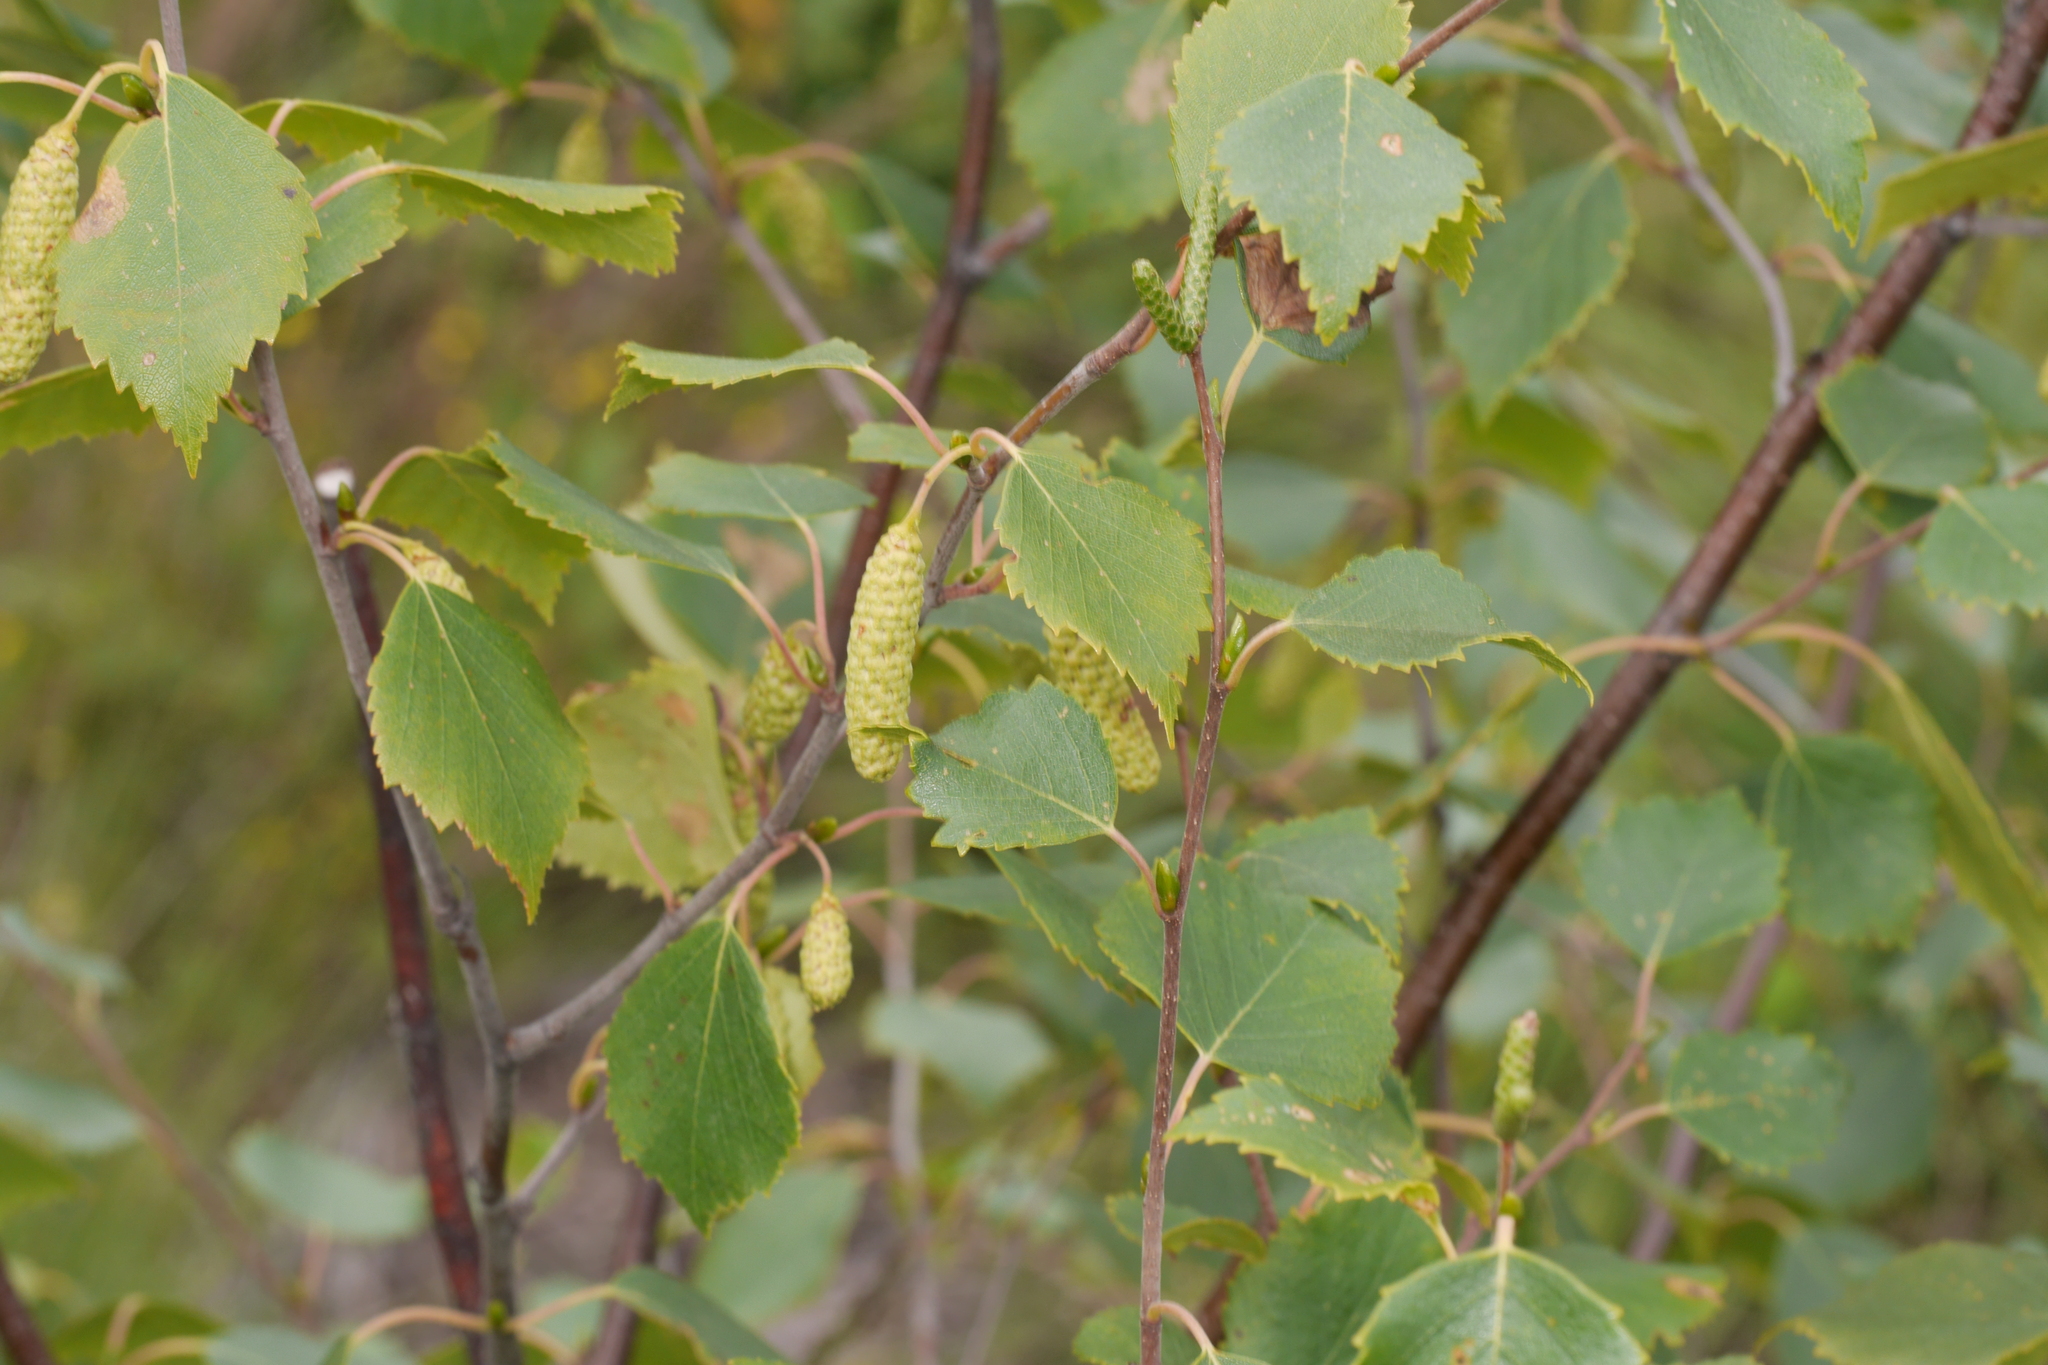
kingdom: Plantae
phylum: Tracheophyta
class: Magnoliopsida
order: Fagales
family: Betulaceae
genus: Betula
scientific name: Betula pubescens
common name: Downy birch
